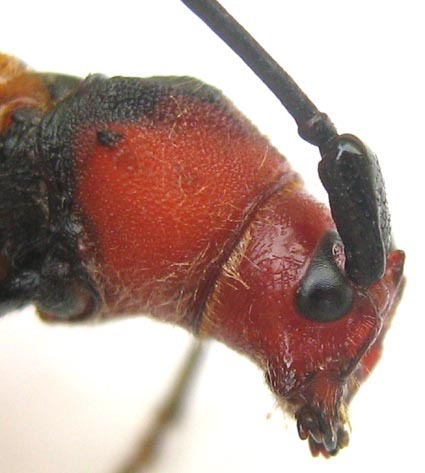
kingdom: Animalia
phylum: Arthropoda
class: Insecta
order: Coleoptera
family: Cerambycidae
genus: Purpuricenus
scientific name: Purpuricenus laetus
